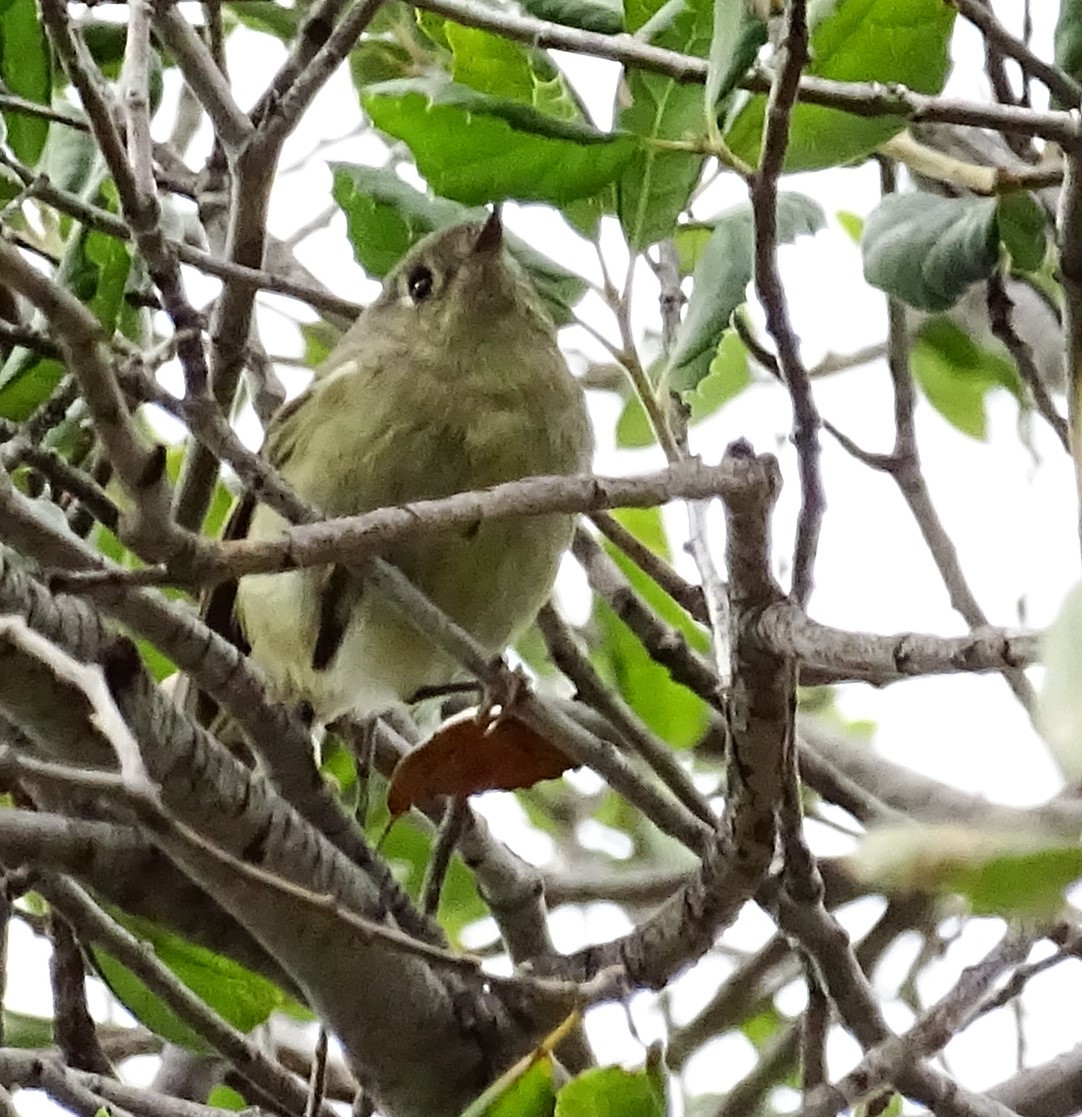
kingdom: Animalia
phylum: Chordata
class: Aves
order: Passeriformes
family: Regulidae
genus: Regulus
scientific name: Regulus calendula
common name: Ruby-crowned kinglet
